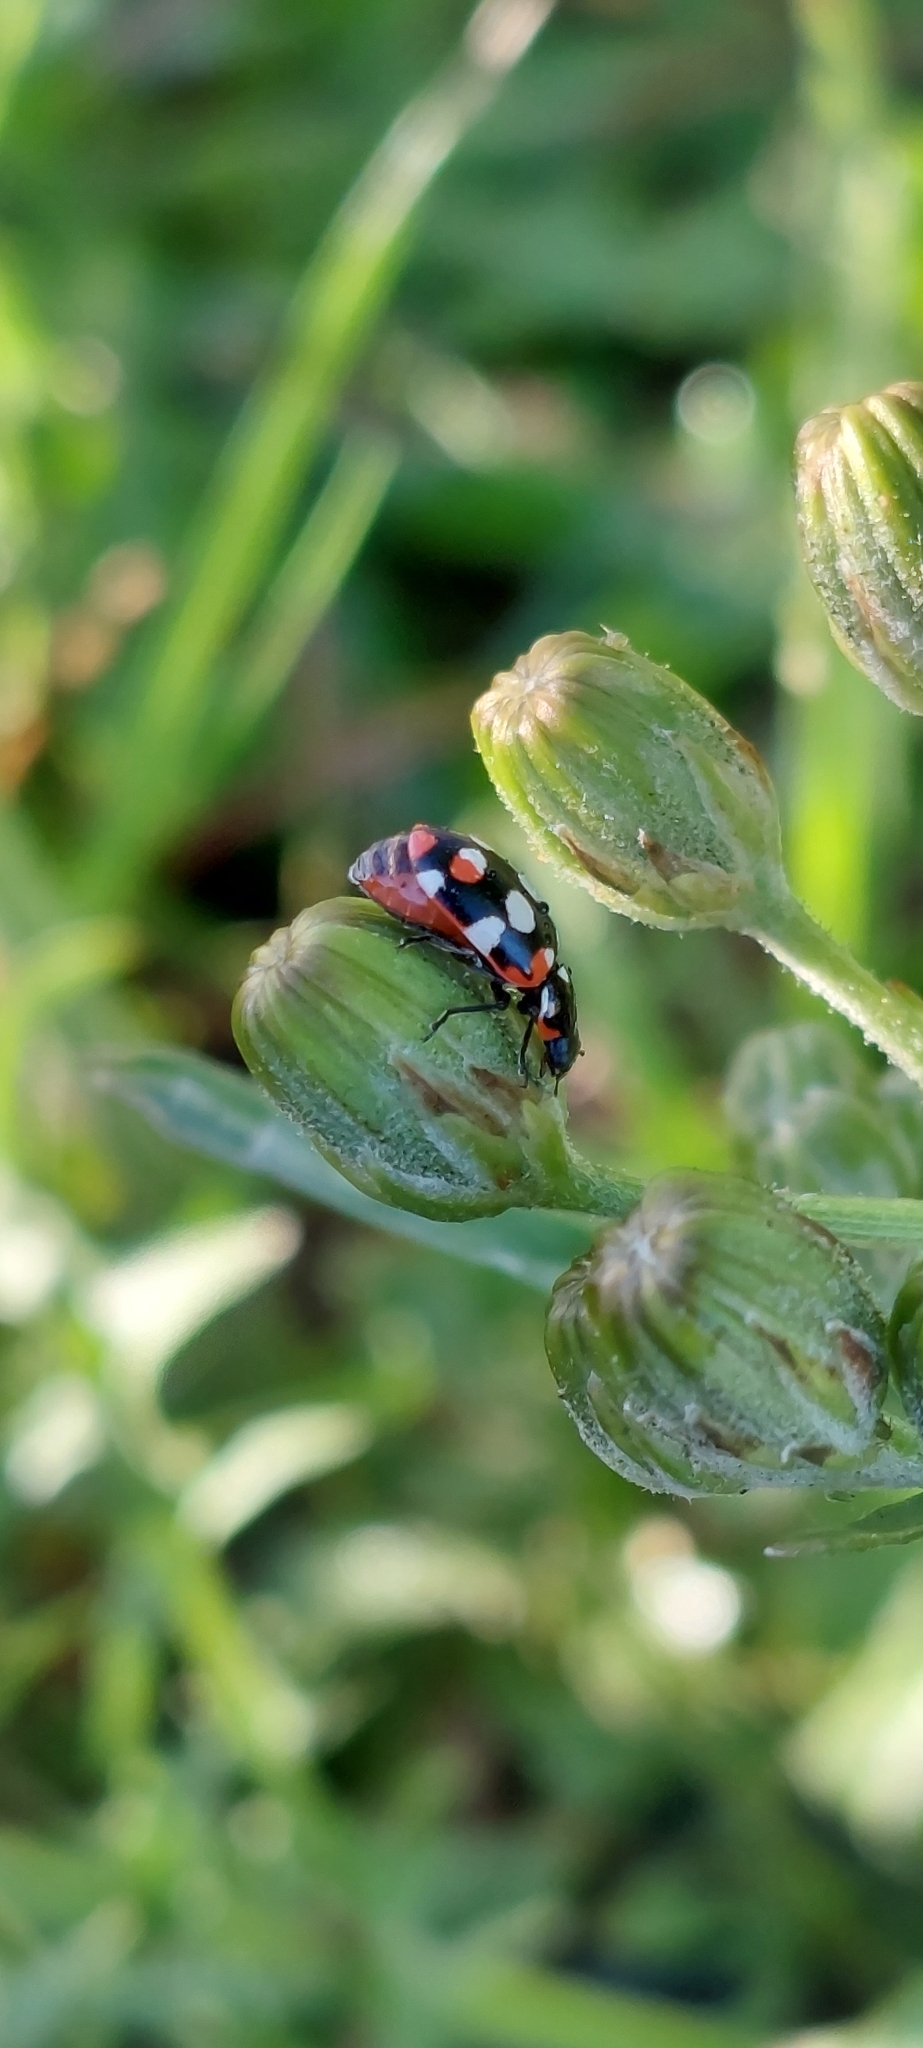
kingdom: Animalia
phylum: Arthropoda
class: Insecta
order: Coleoptera
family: Coccinellidae
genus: Eriopis
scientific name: Eriopis connexa
